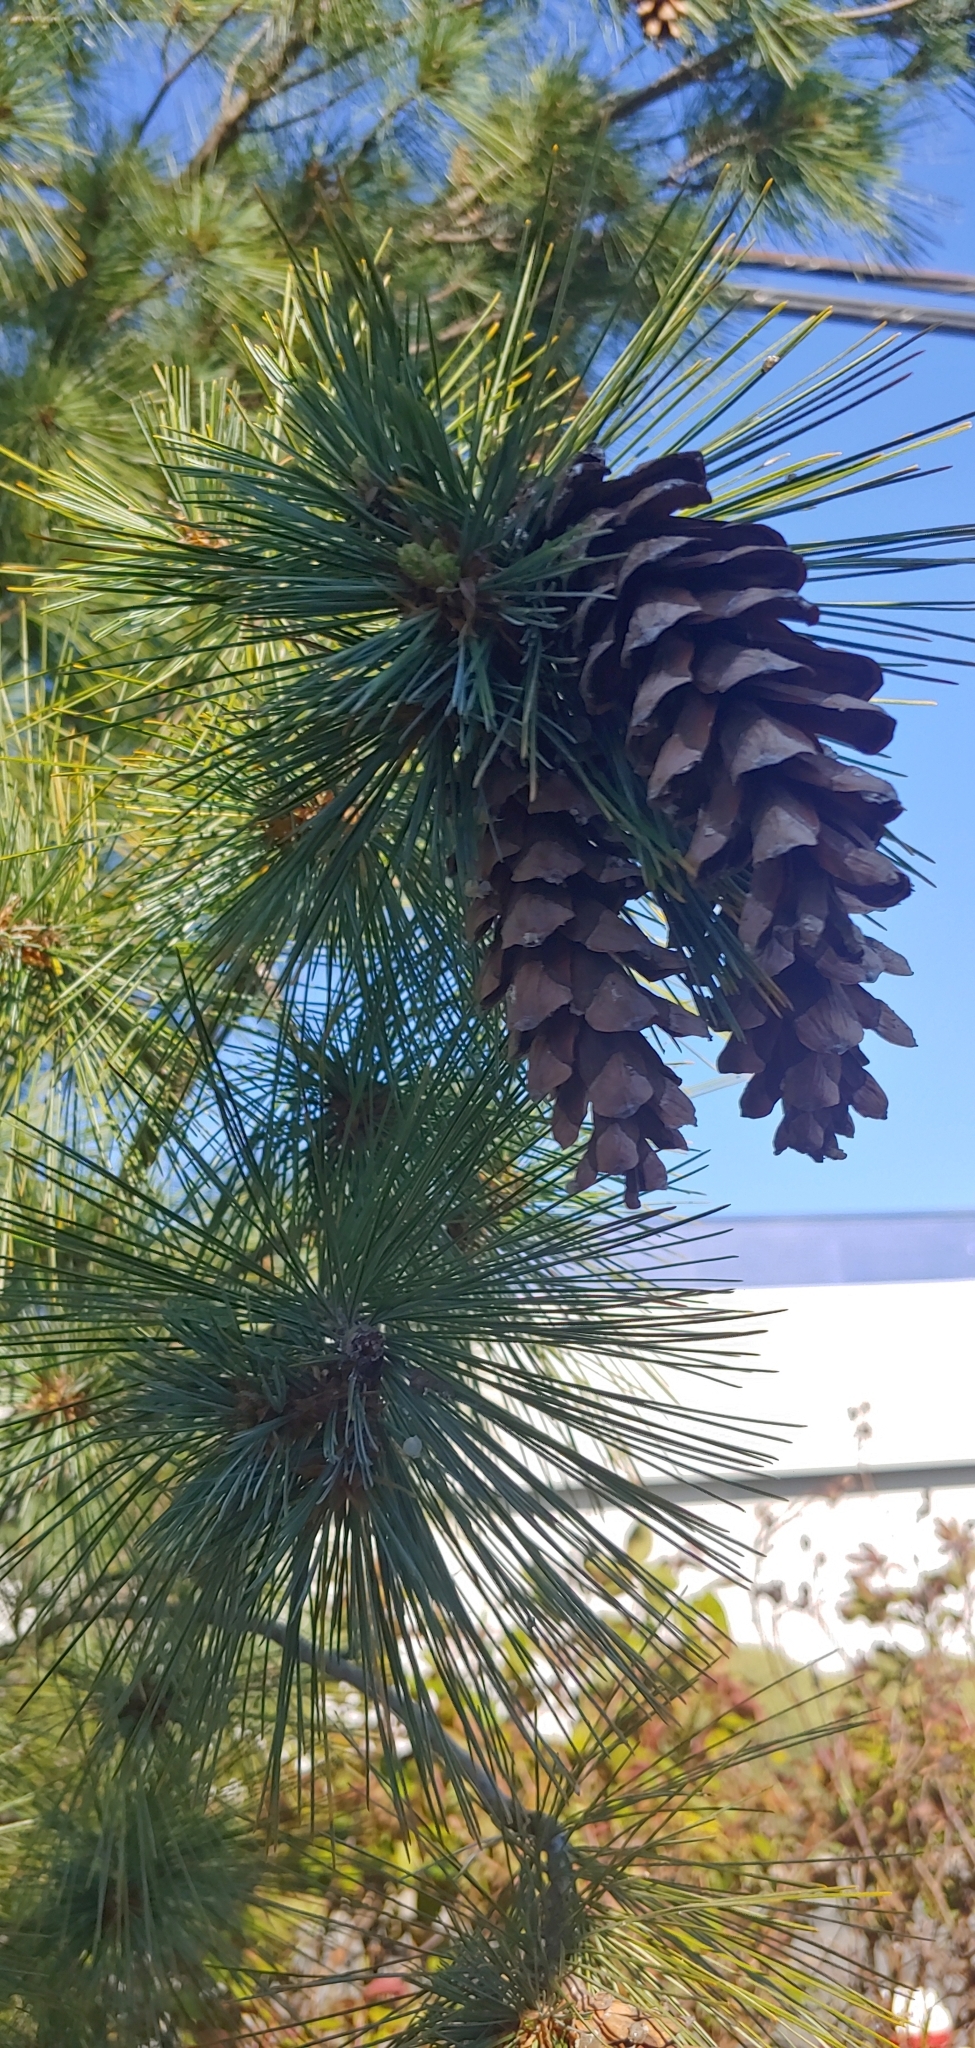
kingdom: Plantae
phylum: Tracheophyta
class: Pinopsida
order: Pinales
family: Pinaceae
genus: Pinus
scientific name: Pinus monticola
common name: Western white pine
